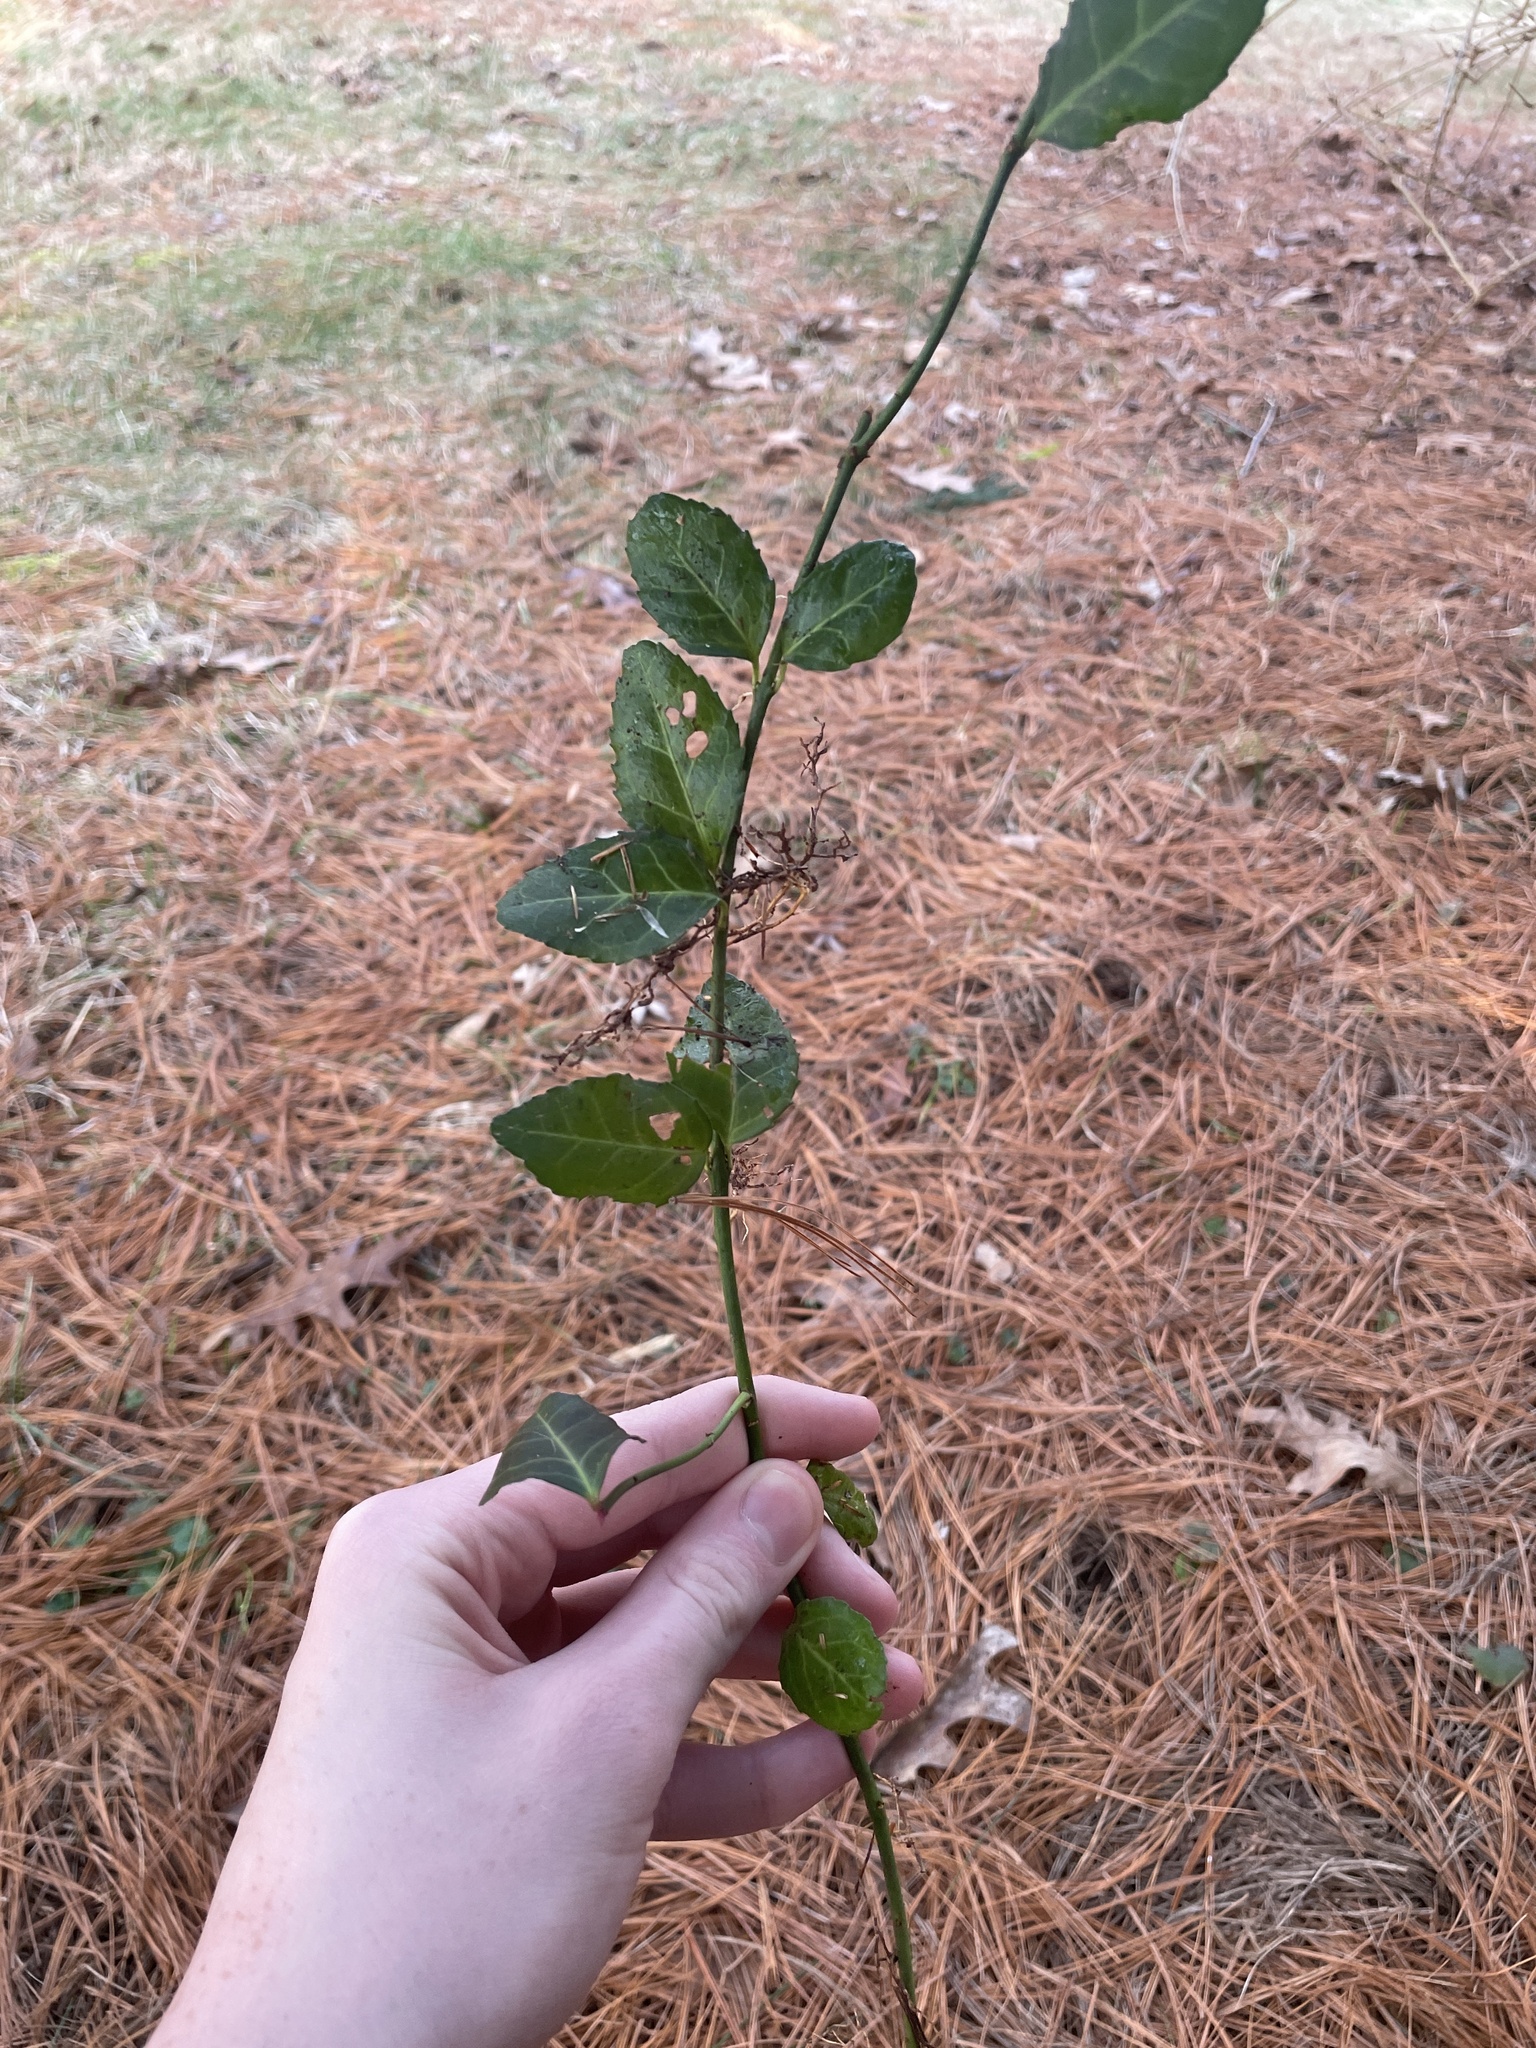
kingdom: Plantae
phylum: Tracheophyta
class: Magnoliopsida
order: Celastrales
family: Celastraceae
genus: Euonymus
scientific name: Euonymus fortunei
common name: Climbing euonymus
